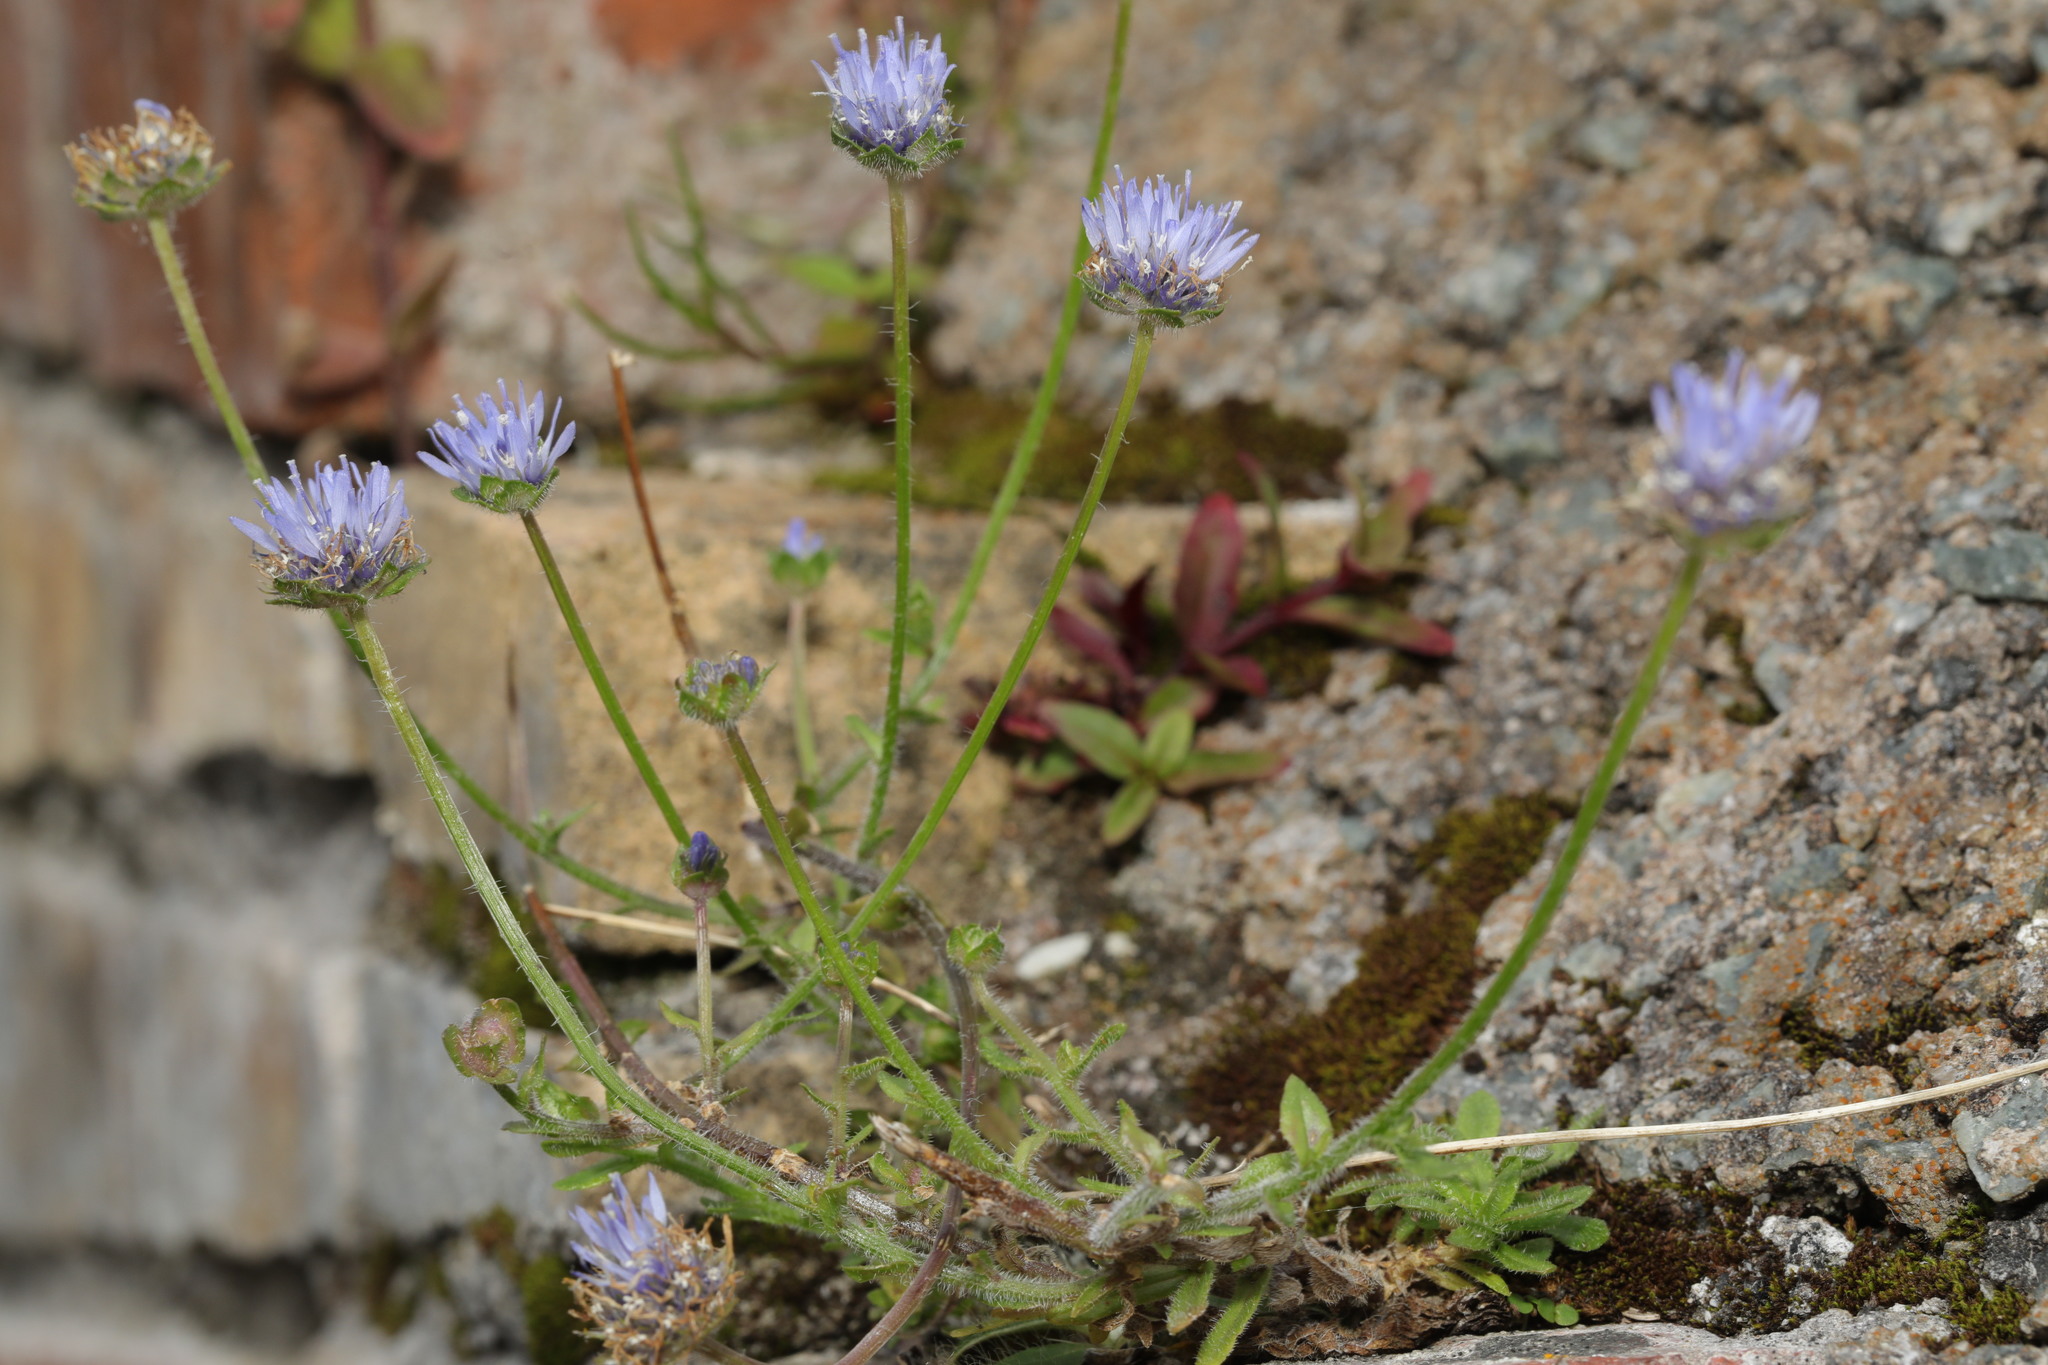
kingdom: Plantae
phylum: Tracheophyta
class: Magnoliopsida
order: Asterales
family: Campanulaceae
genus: Jasione
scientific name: Jasione montana
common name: Sheep's-bit
